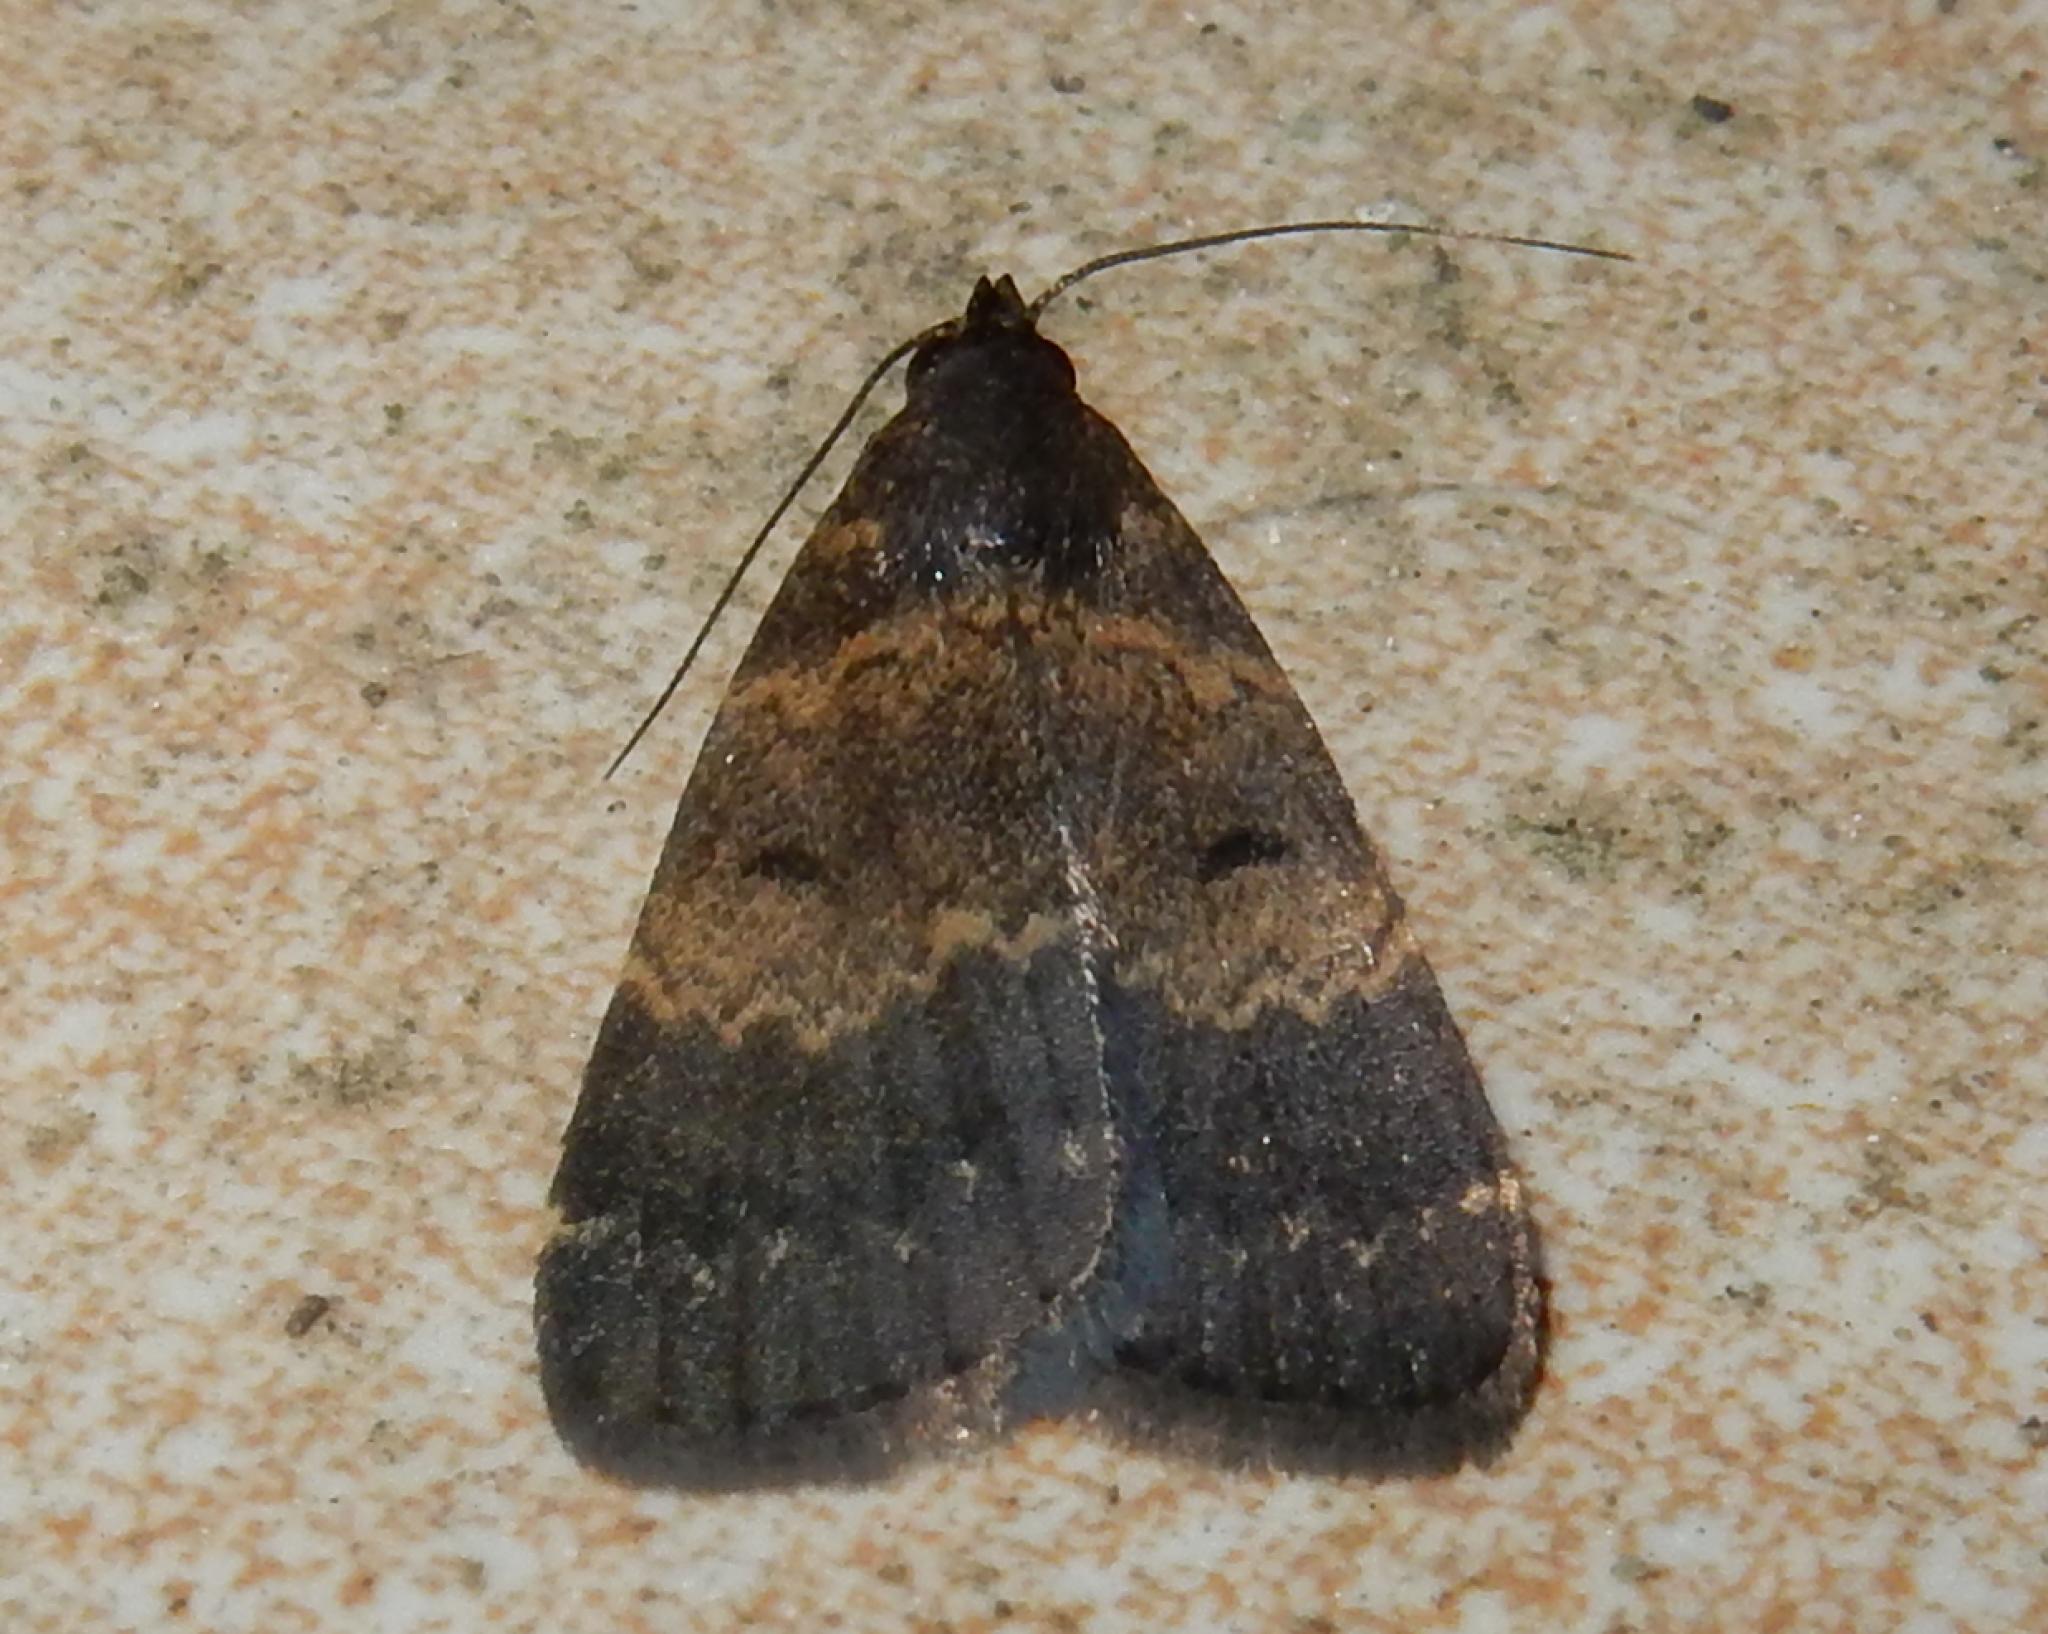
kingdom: Animalia
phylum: Arthropoda
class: Insecta
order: Lepidoptera
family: Erebidae
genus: Hydrillodes
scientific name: Hydrillodes uliginosalis
